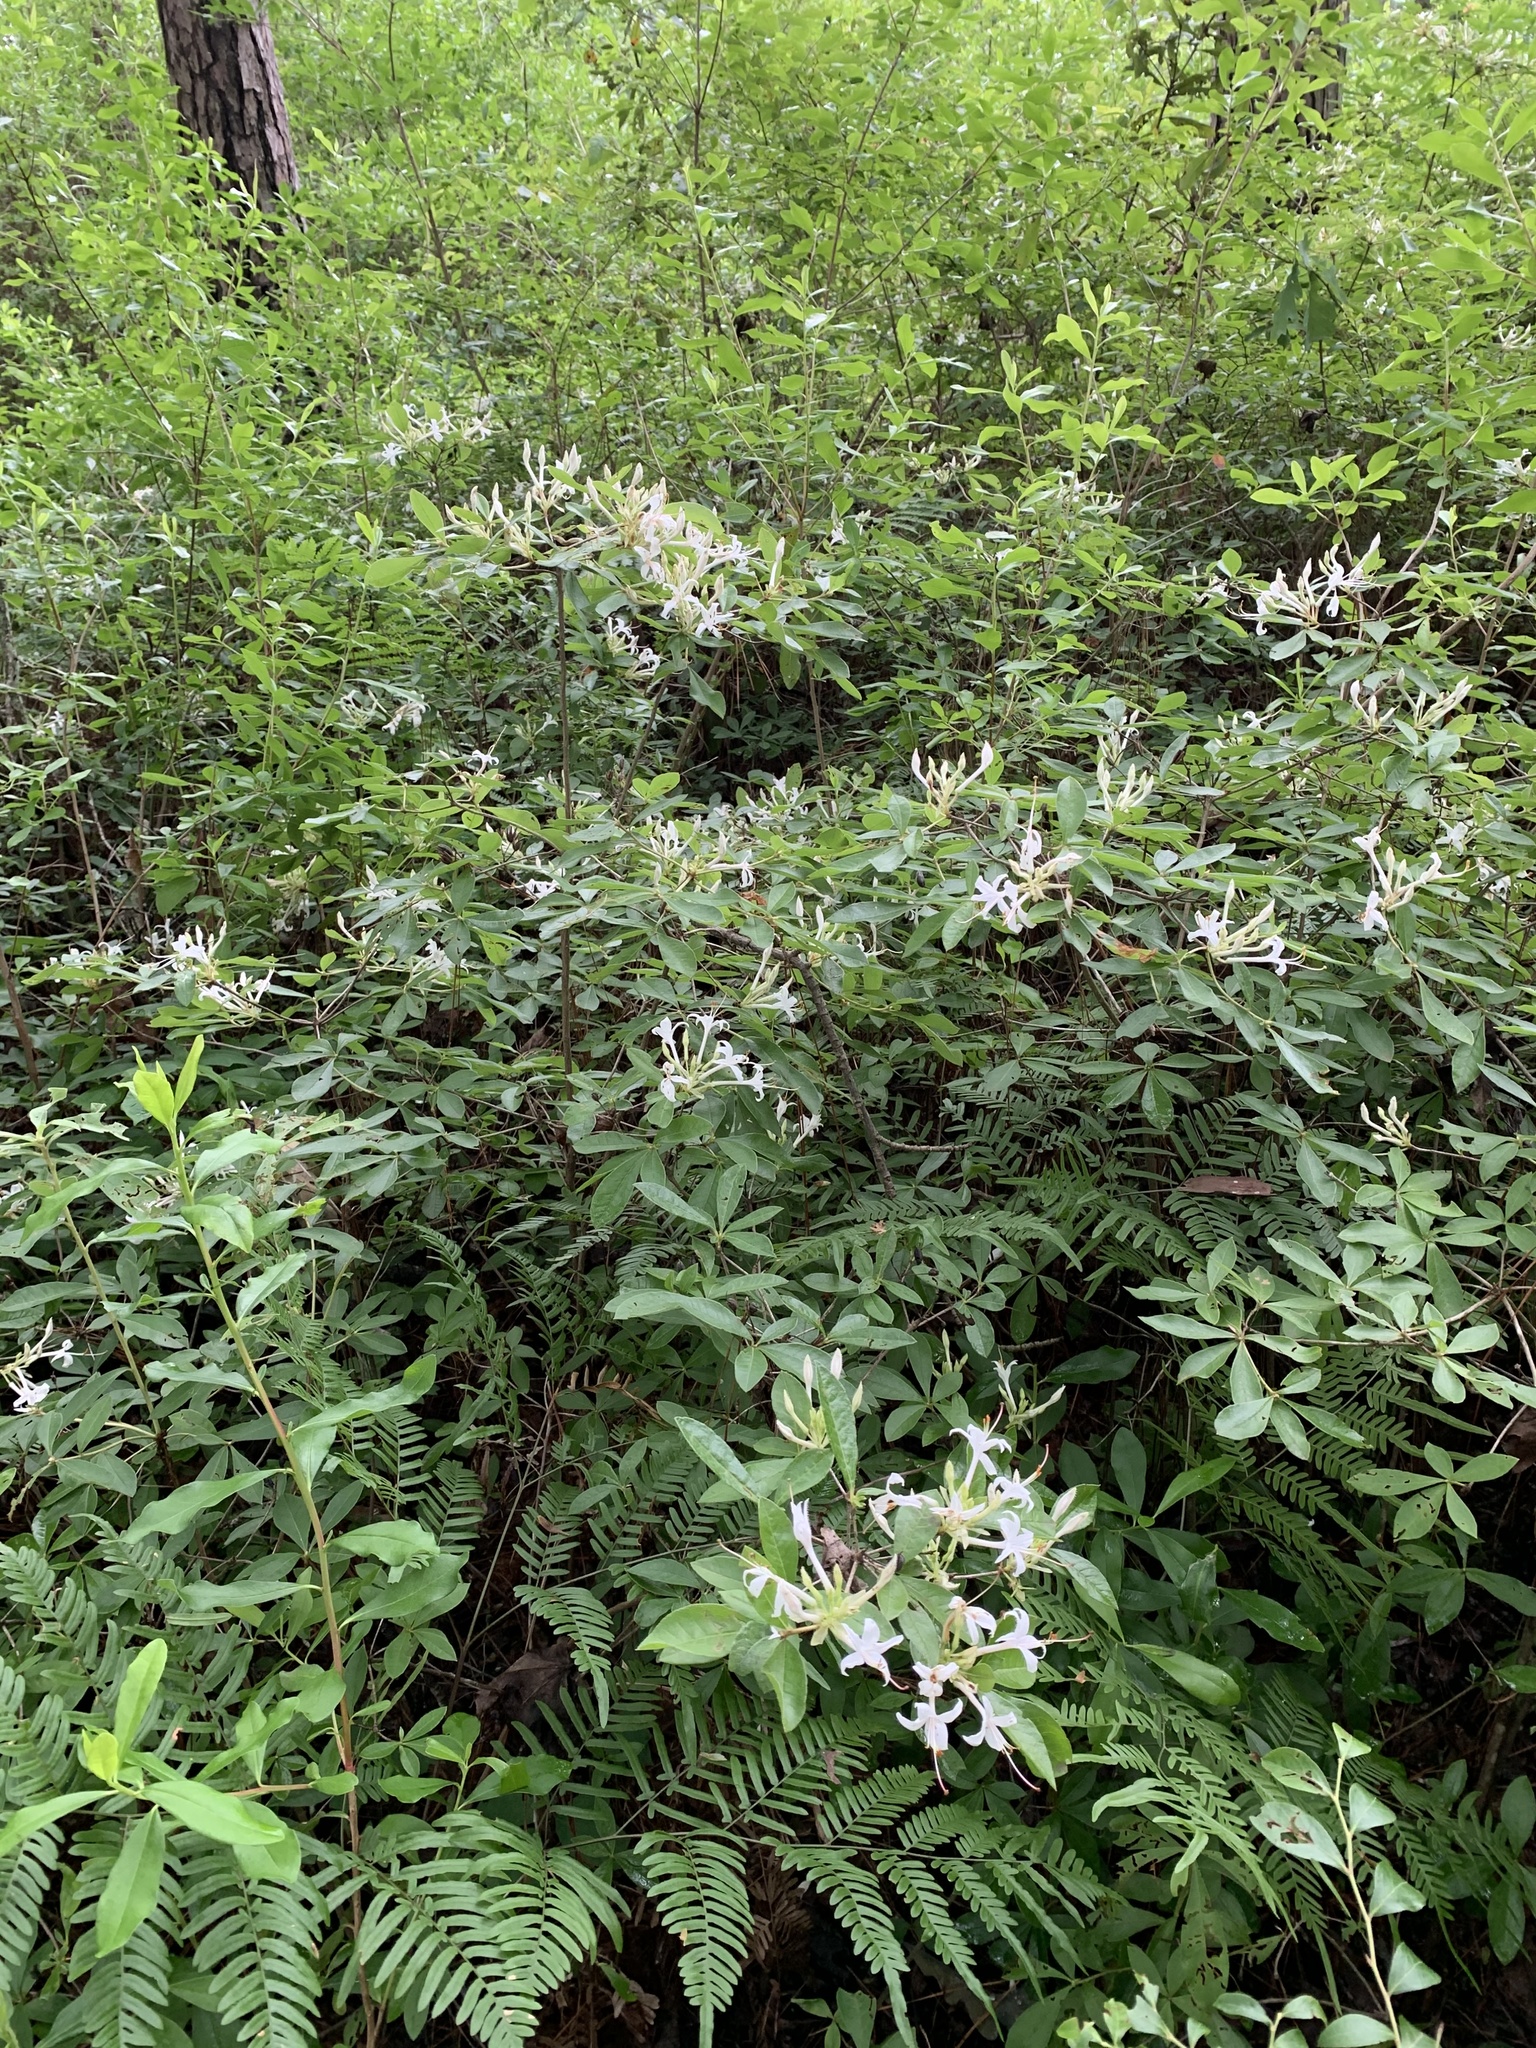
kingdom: Plantae
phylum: Tracheophyta
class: Magnoliopsida
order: Ericales
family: Ericaceae
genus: Rhododendron
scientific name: Rhododendron viscosum
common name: Clammy azalea
